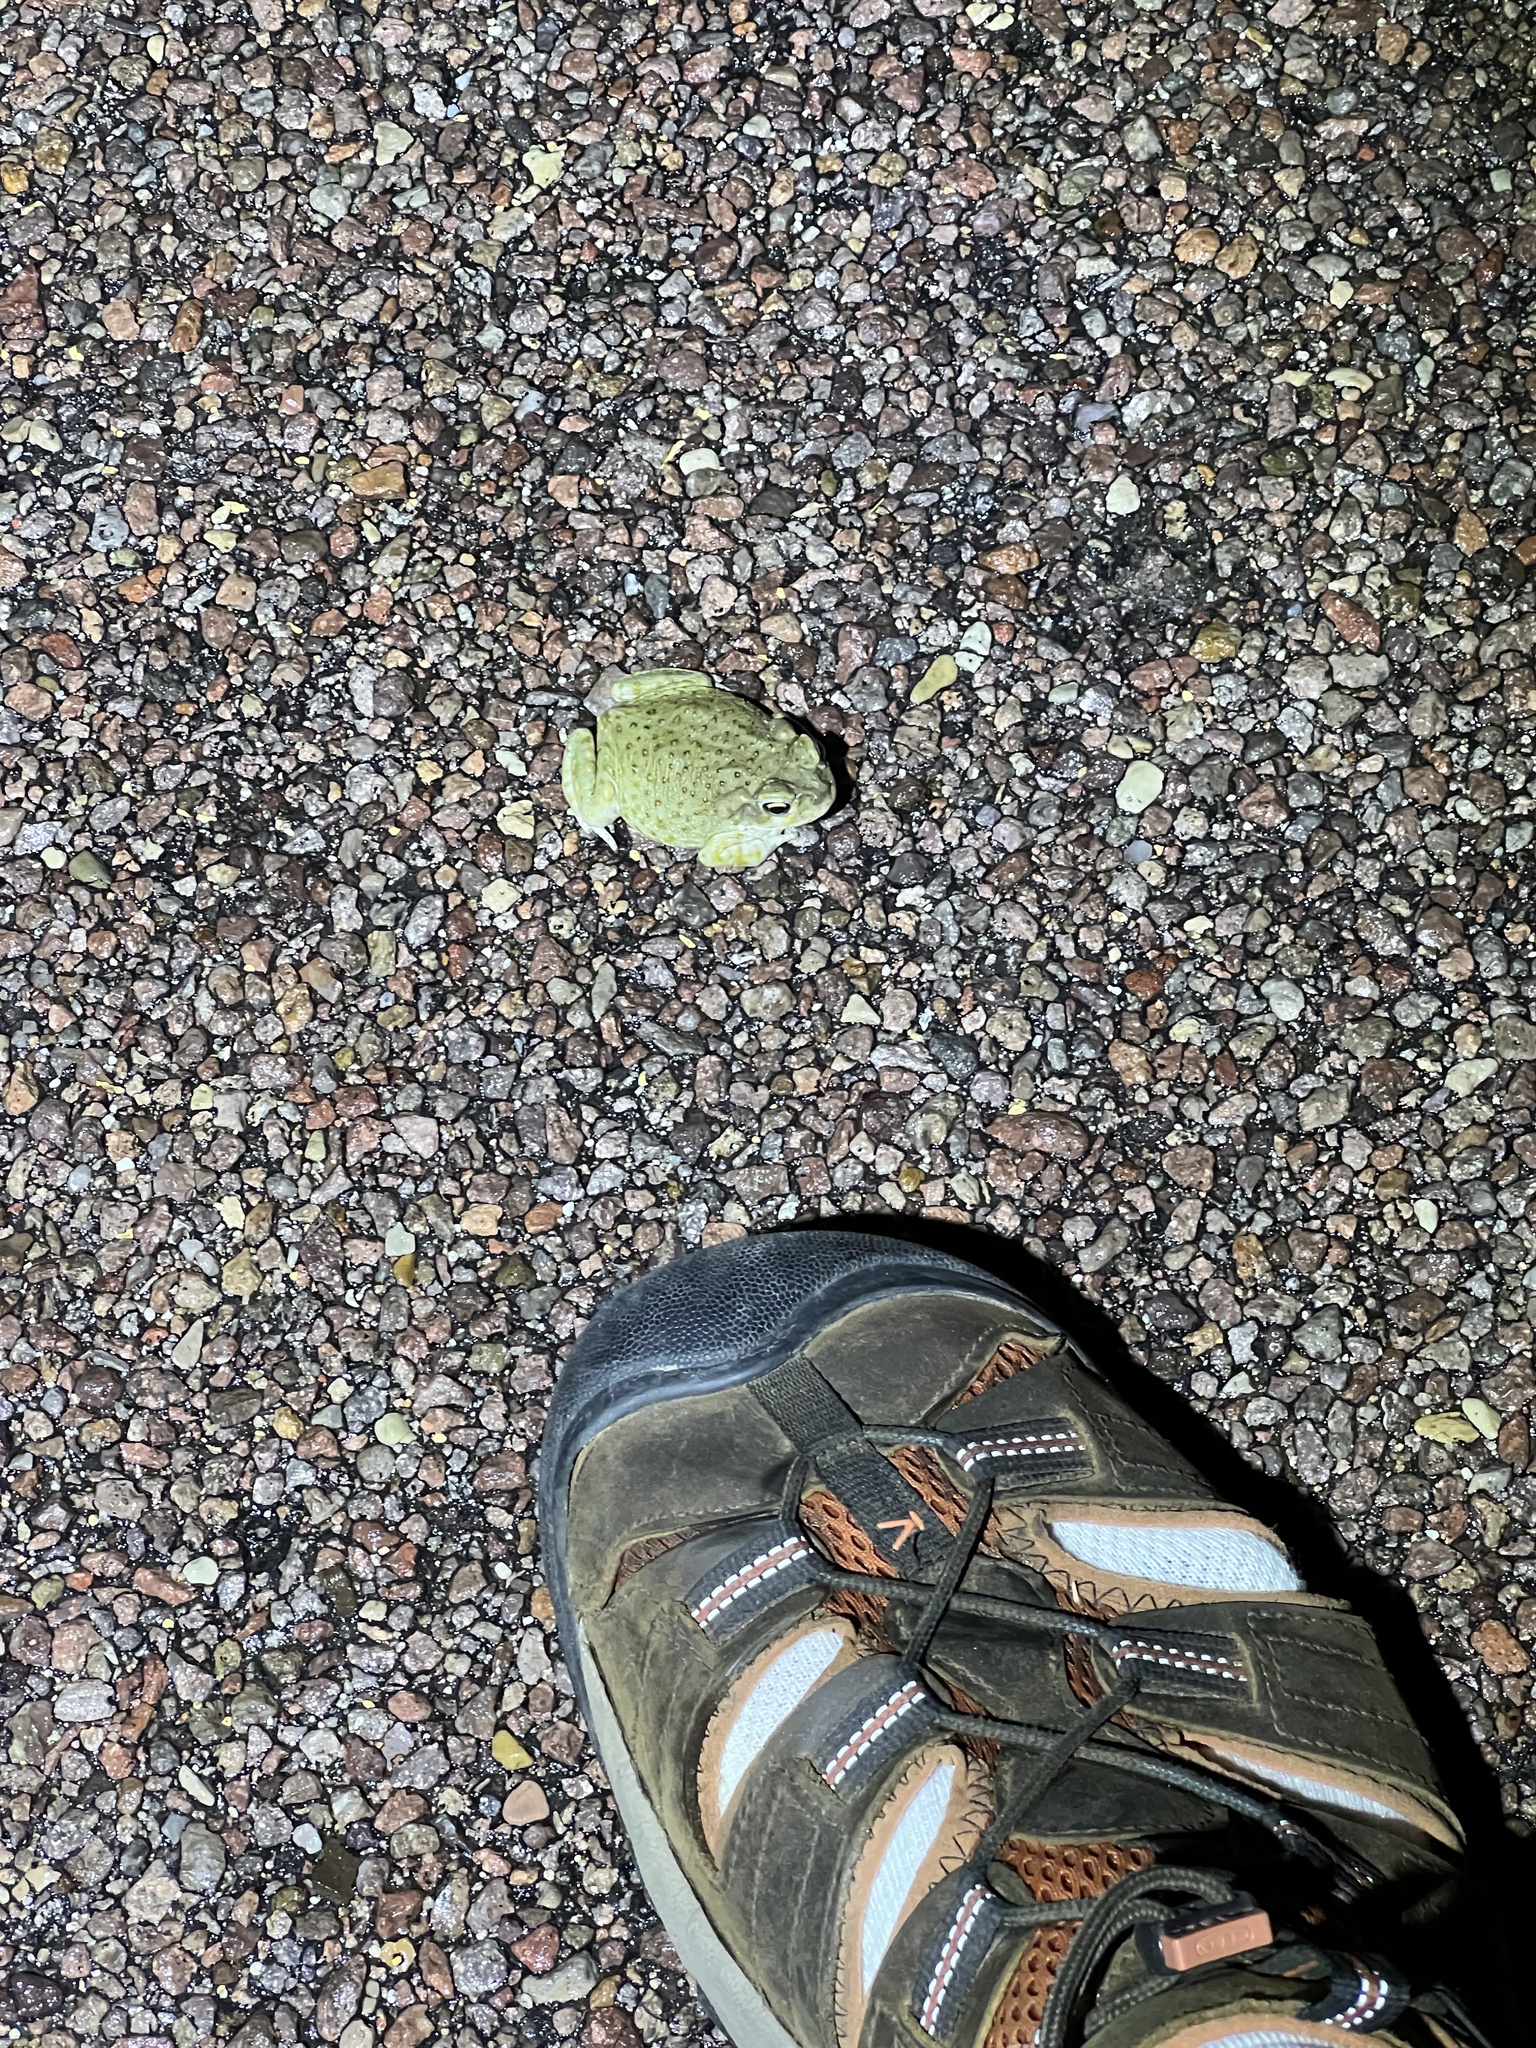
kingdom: Animalia
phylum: Chordata
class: Amphibia
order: Anura
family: Bufonidae
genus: Incilius
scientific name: Incilius alvarius
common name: Sonoran desert toad
